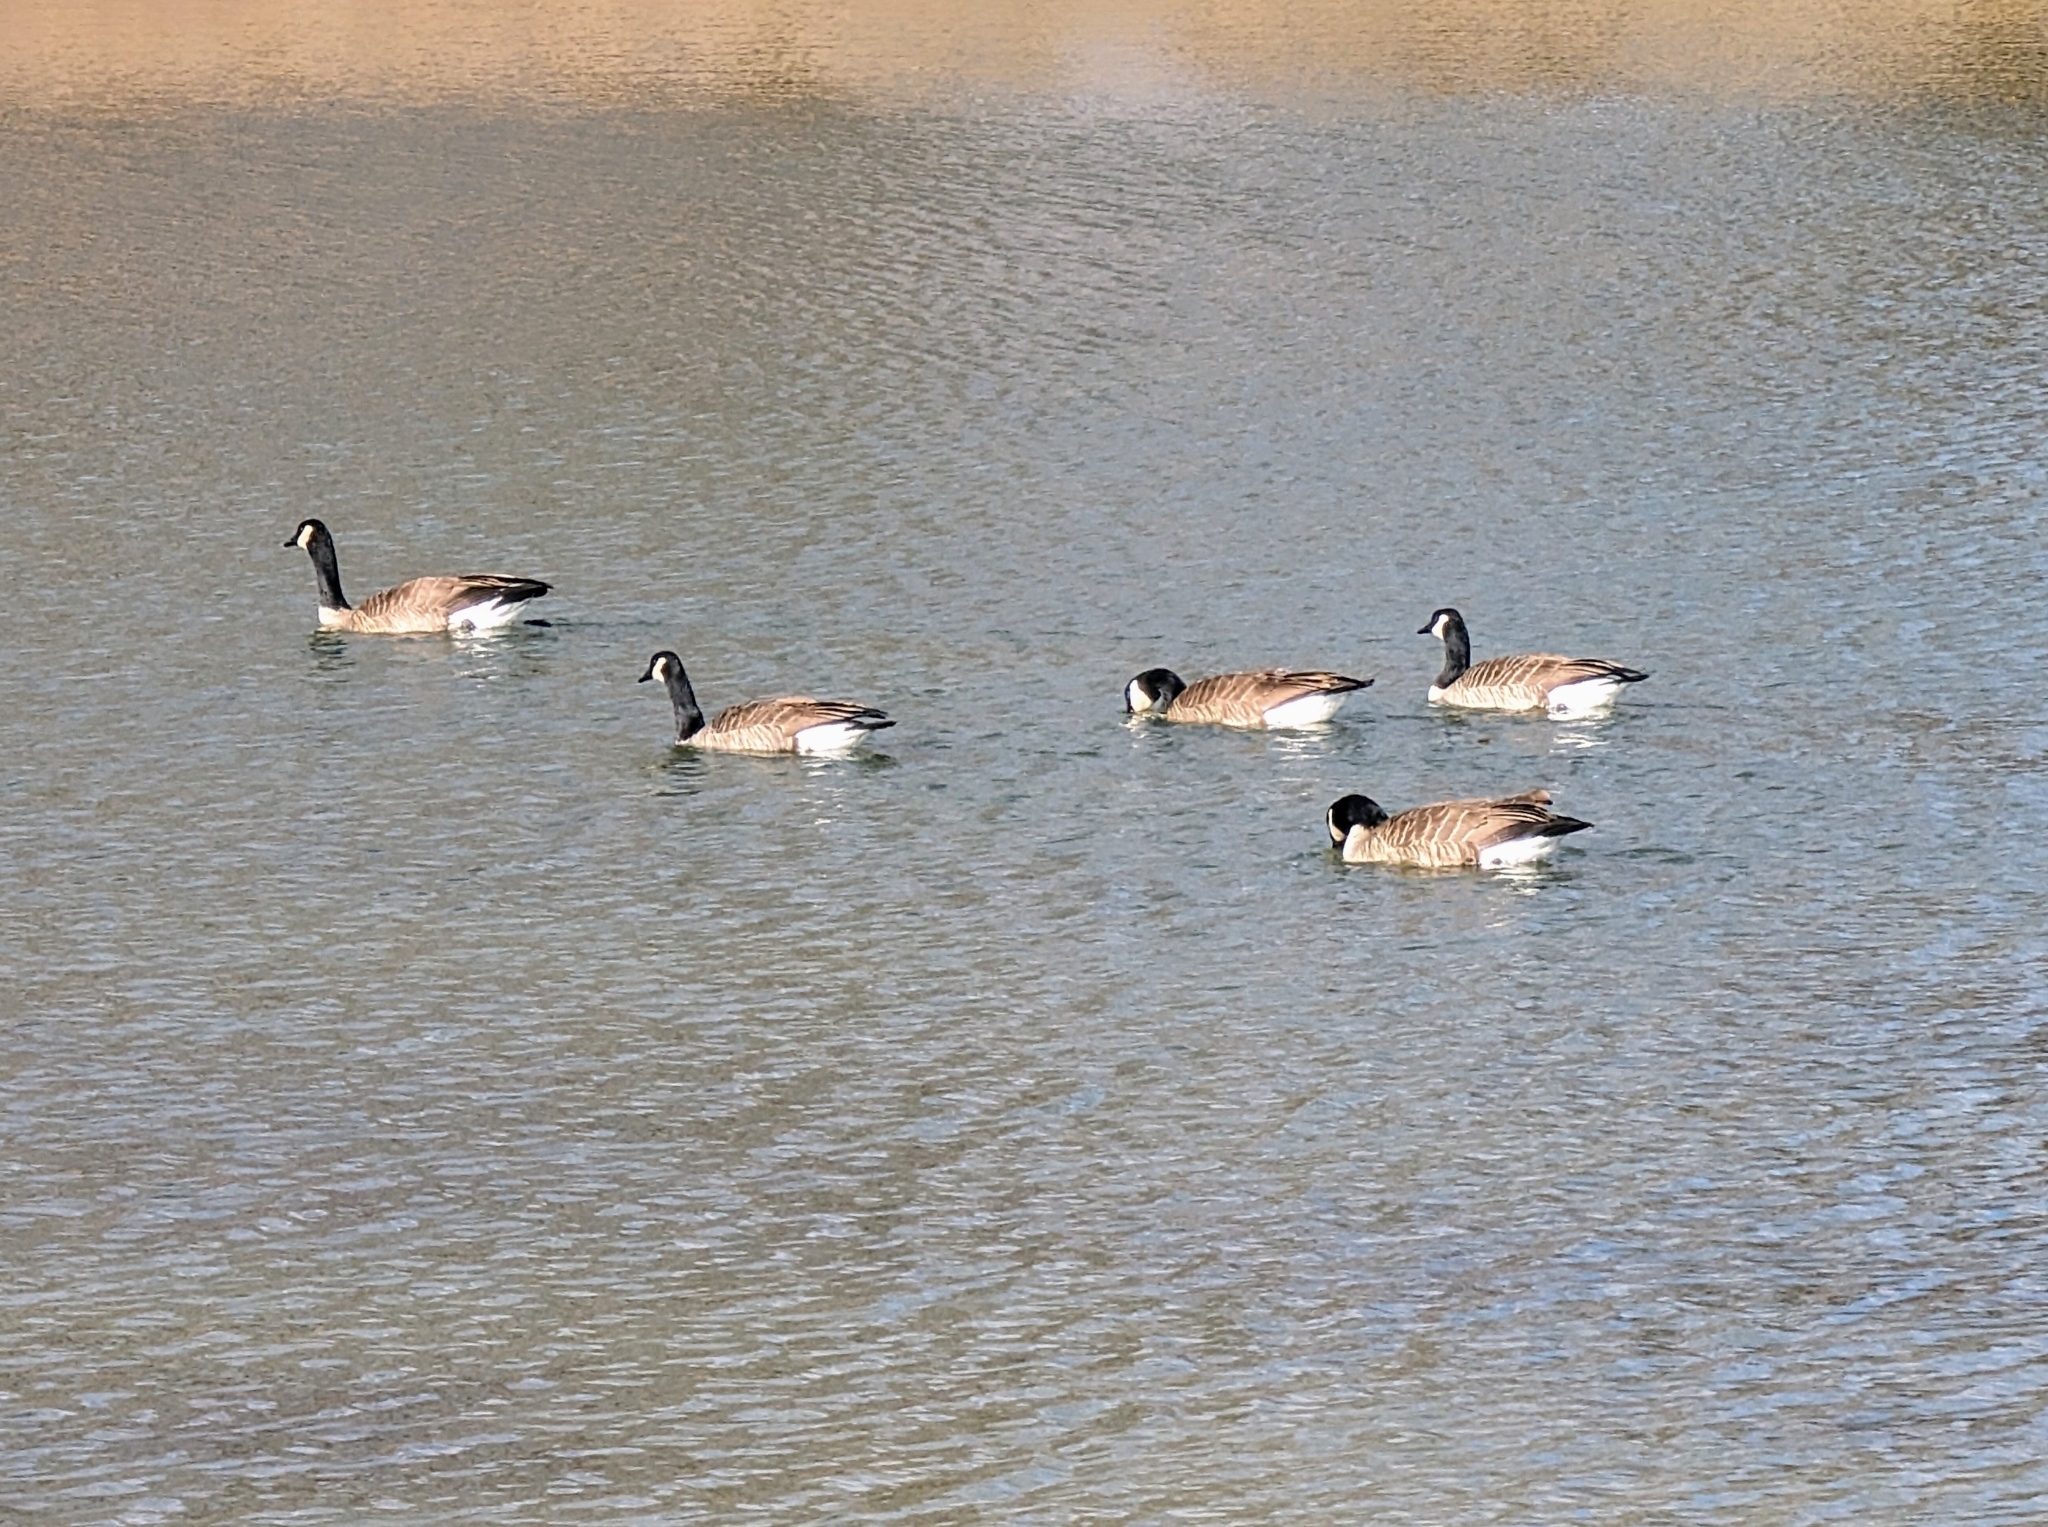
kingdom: Animalia
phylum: Chordata
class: Aves
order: Anseriformes
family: Anatidae
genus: Branta
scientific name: Branta canadensis
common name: Canada goose
